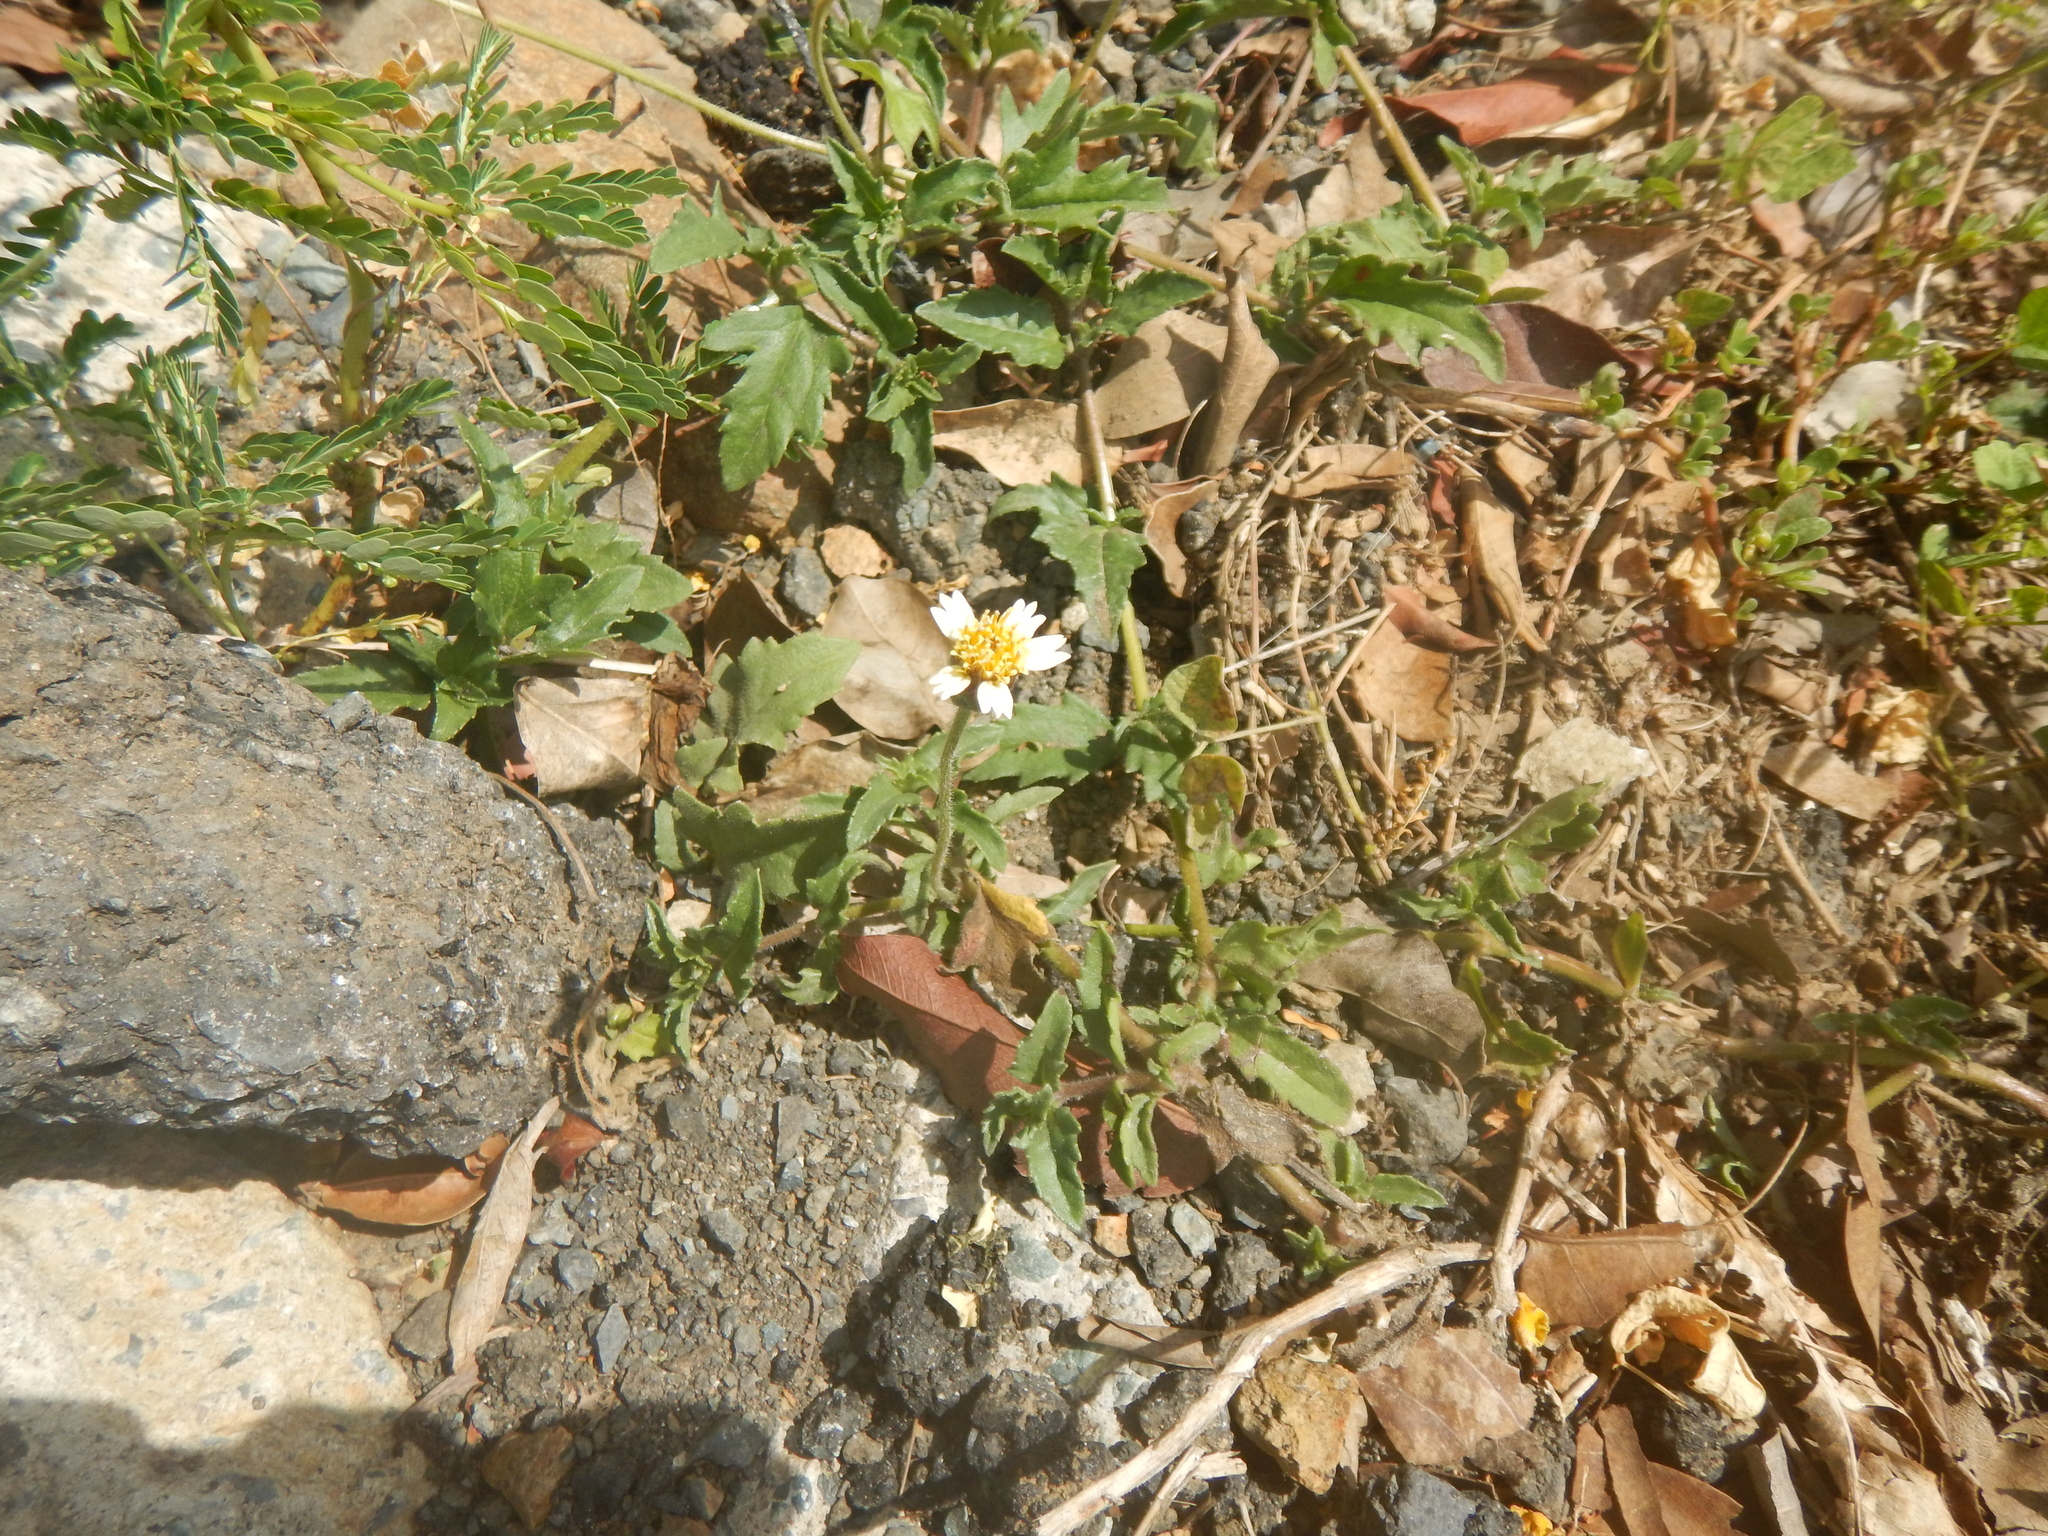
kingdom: Plantae
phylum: Tracheophyta
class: Magnoliopsida
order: Asterales
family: Asteraceae
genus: Tridax
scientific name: Tridax procumbens
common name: Coatbuttons
